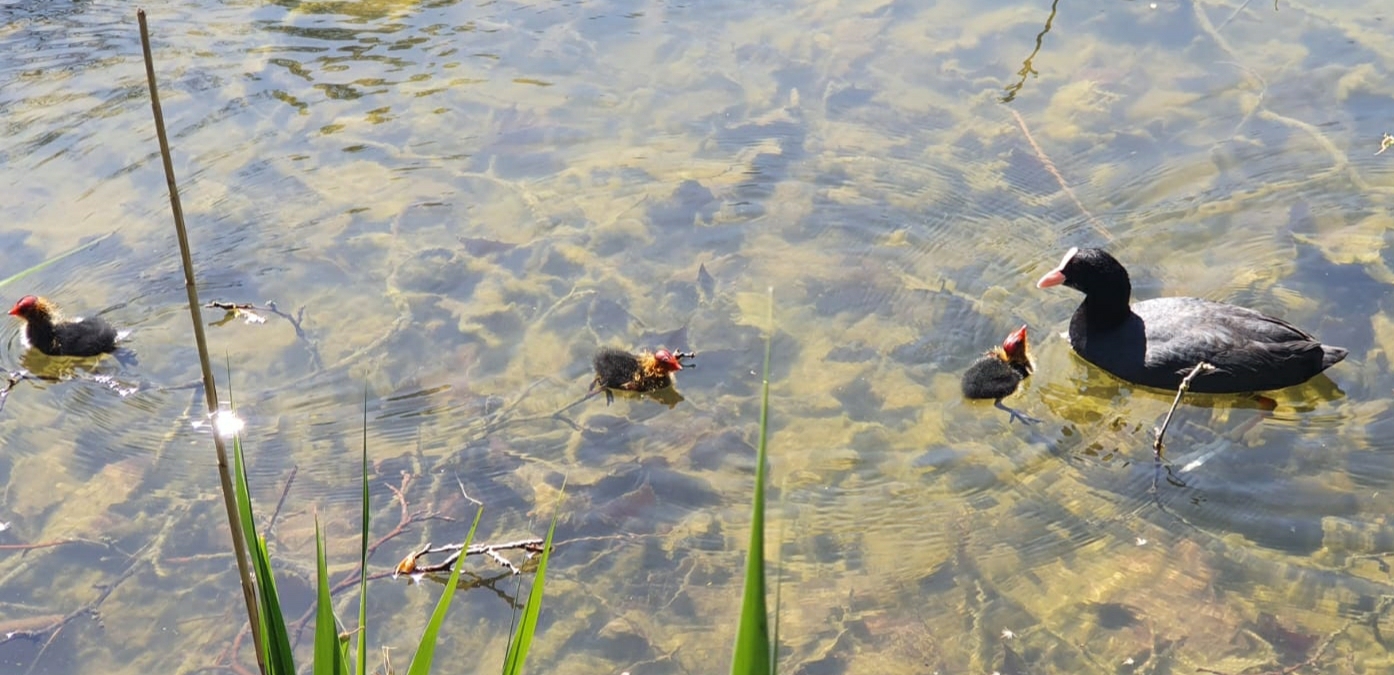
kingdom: Animalia
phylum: Chordata
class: Aves
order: Gruiformes
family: Rallidae
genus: Fulica
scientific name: Fulica atra
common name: Eurasian coot
